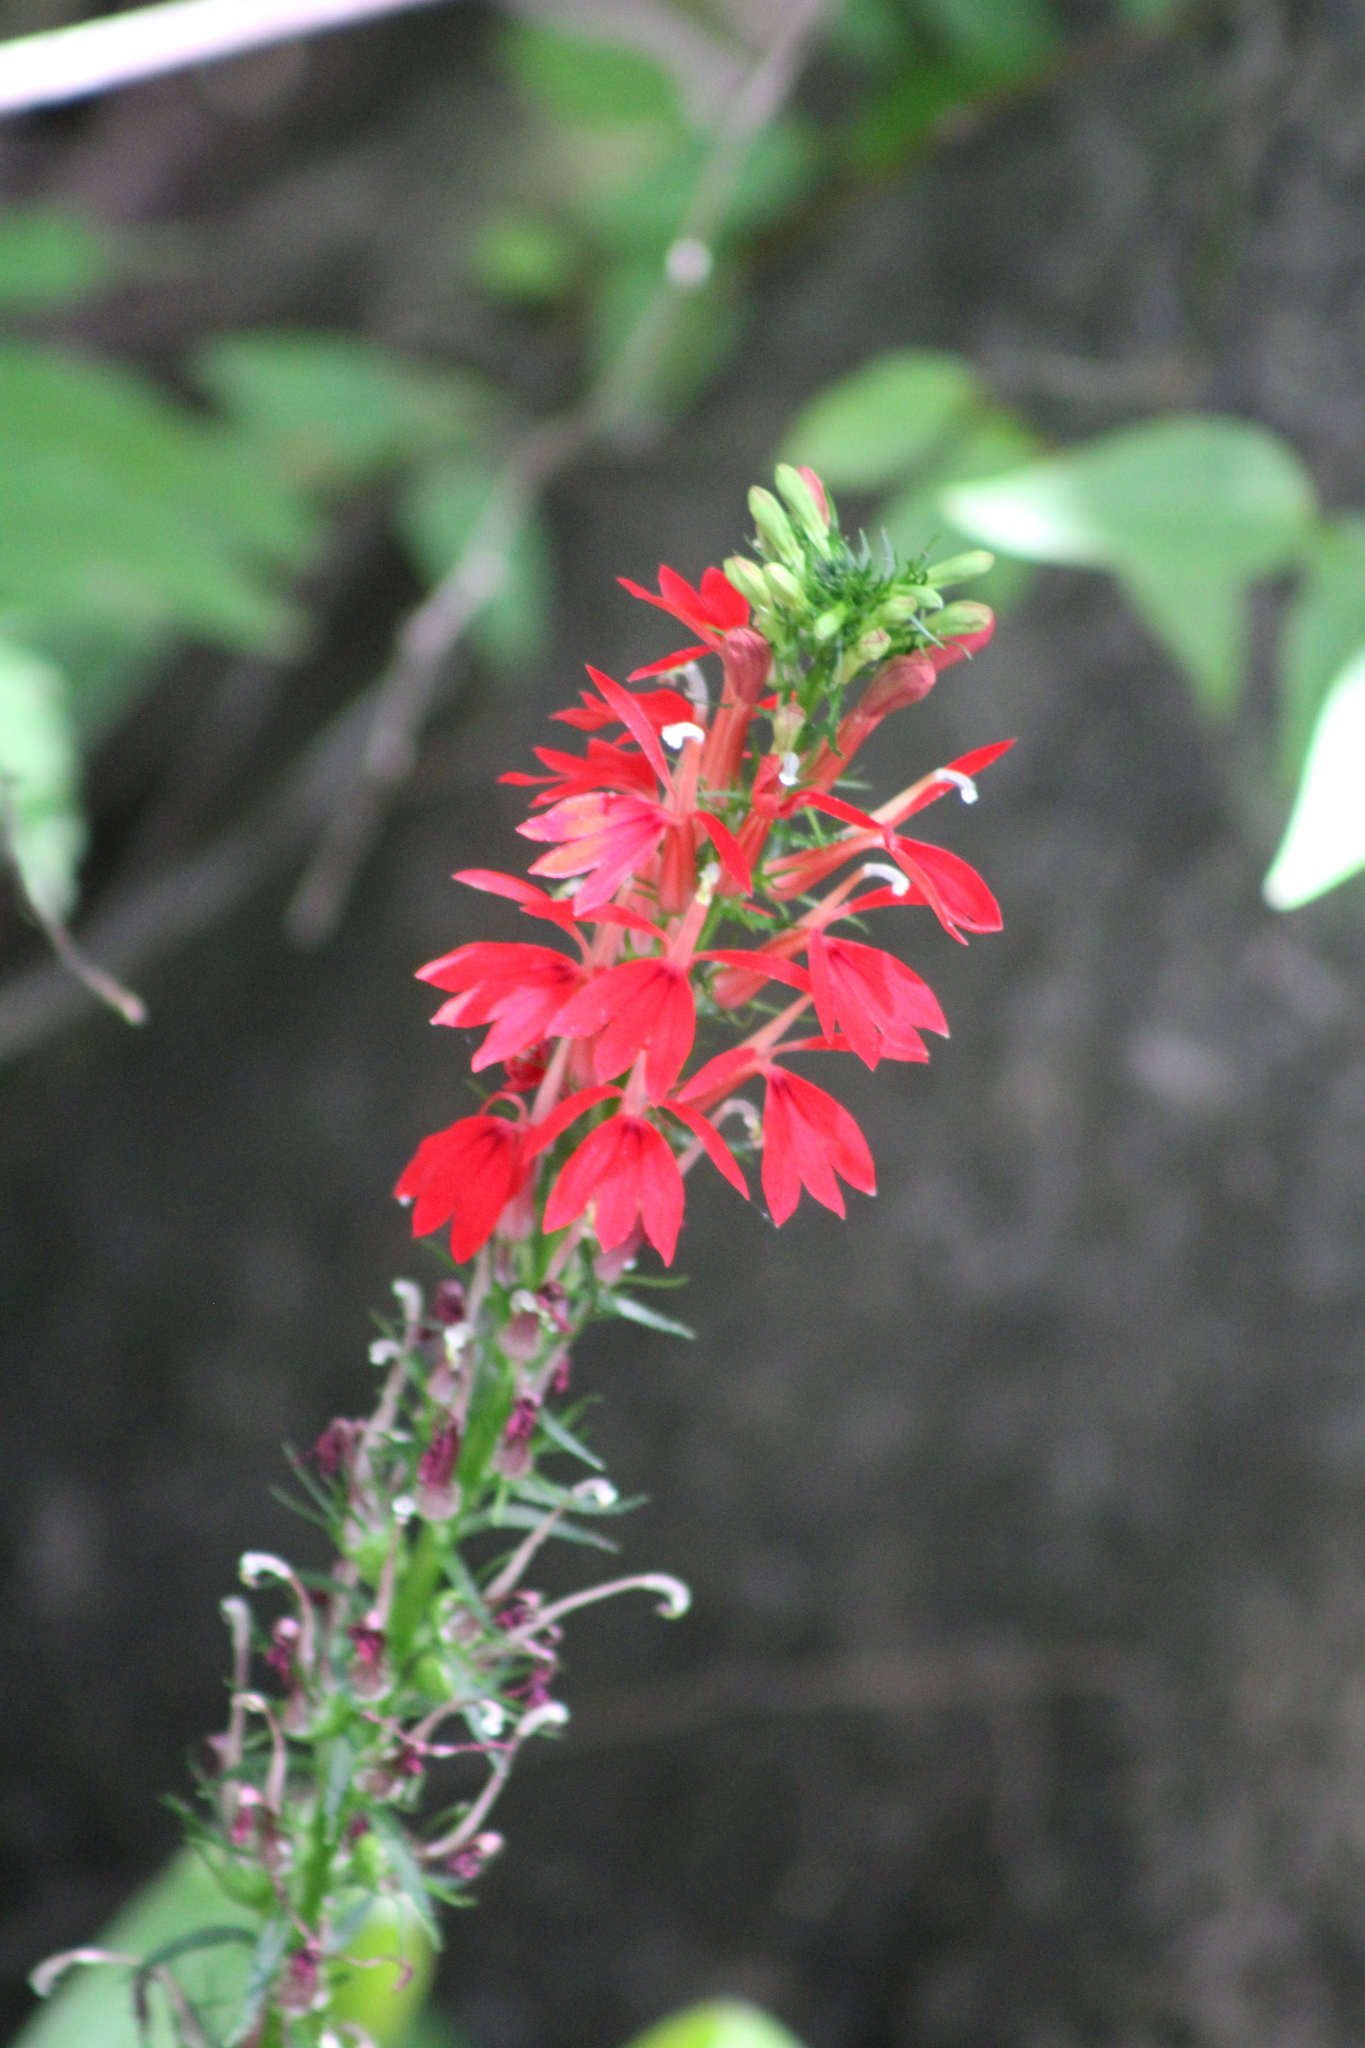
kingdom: Plantae
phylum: Tracheophyta
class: Magnoliopsida
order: Asterales
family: Campanulaceae
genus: Lobelia
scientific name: Lobelia cardinalis
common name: Cardinal flower
